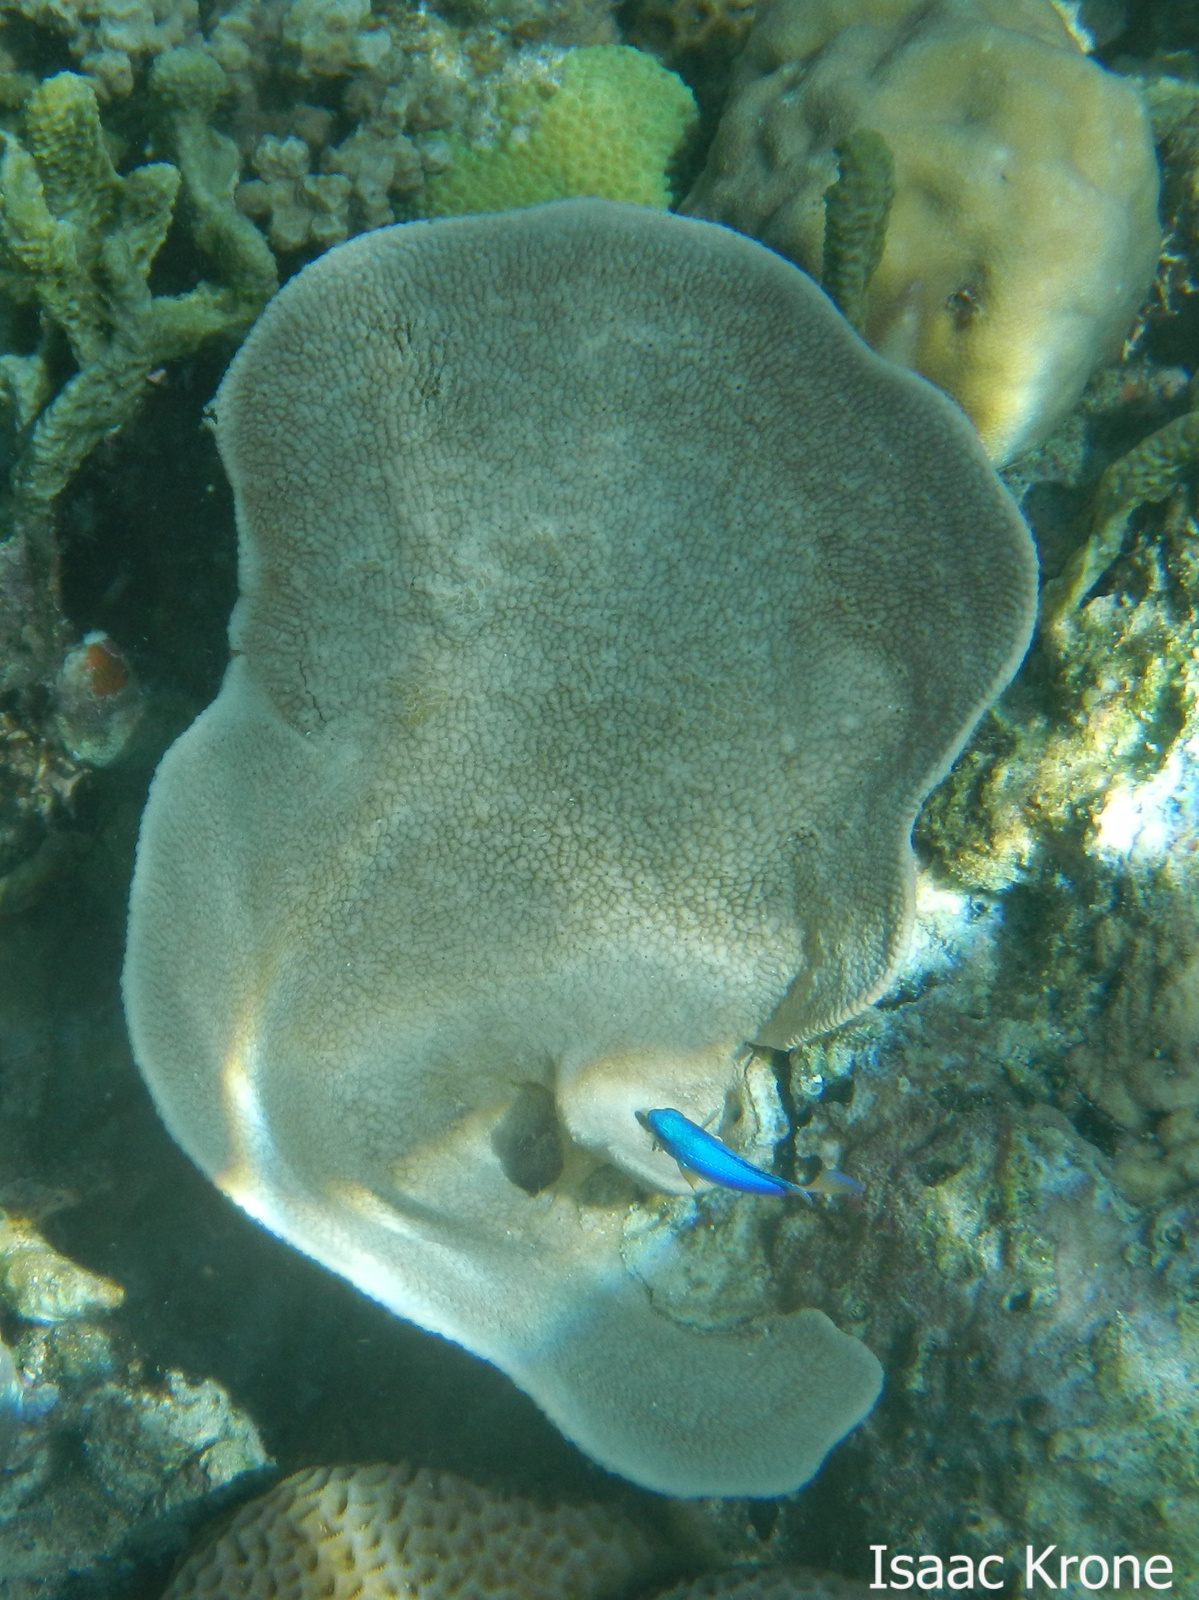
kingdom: Animalia
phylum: Porifera
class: Demospongiae
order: Dictyoceratida
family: Thorectidae
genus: Phyllospongia
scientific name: Phyllospongia foliascens
